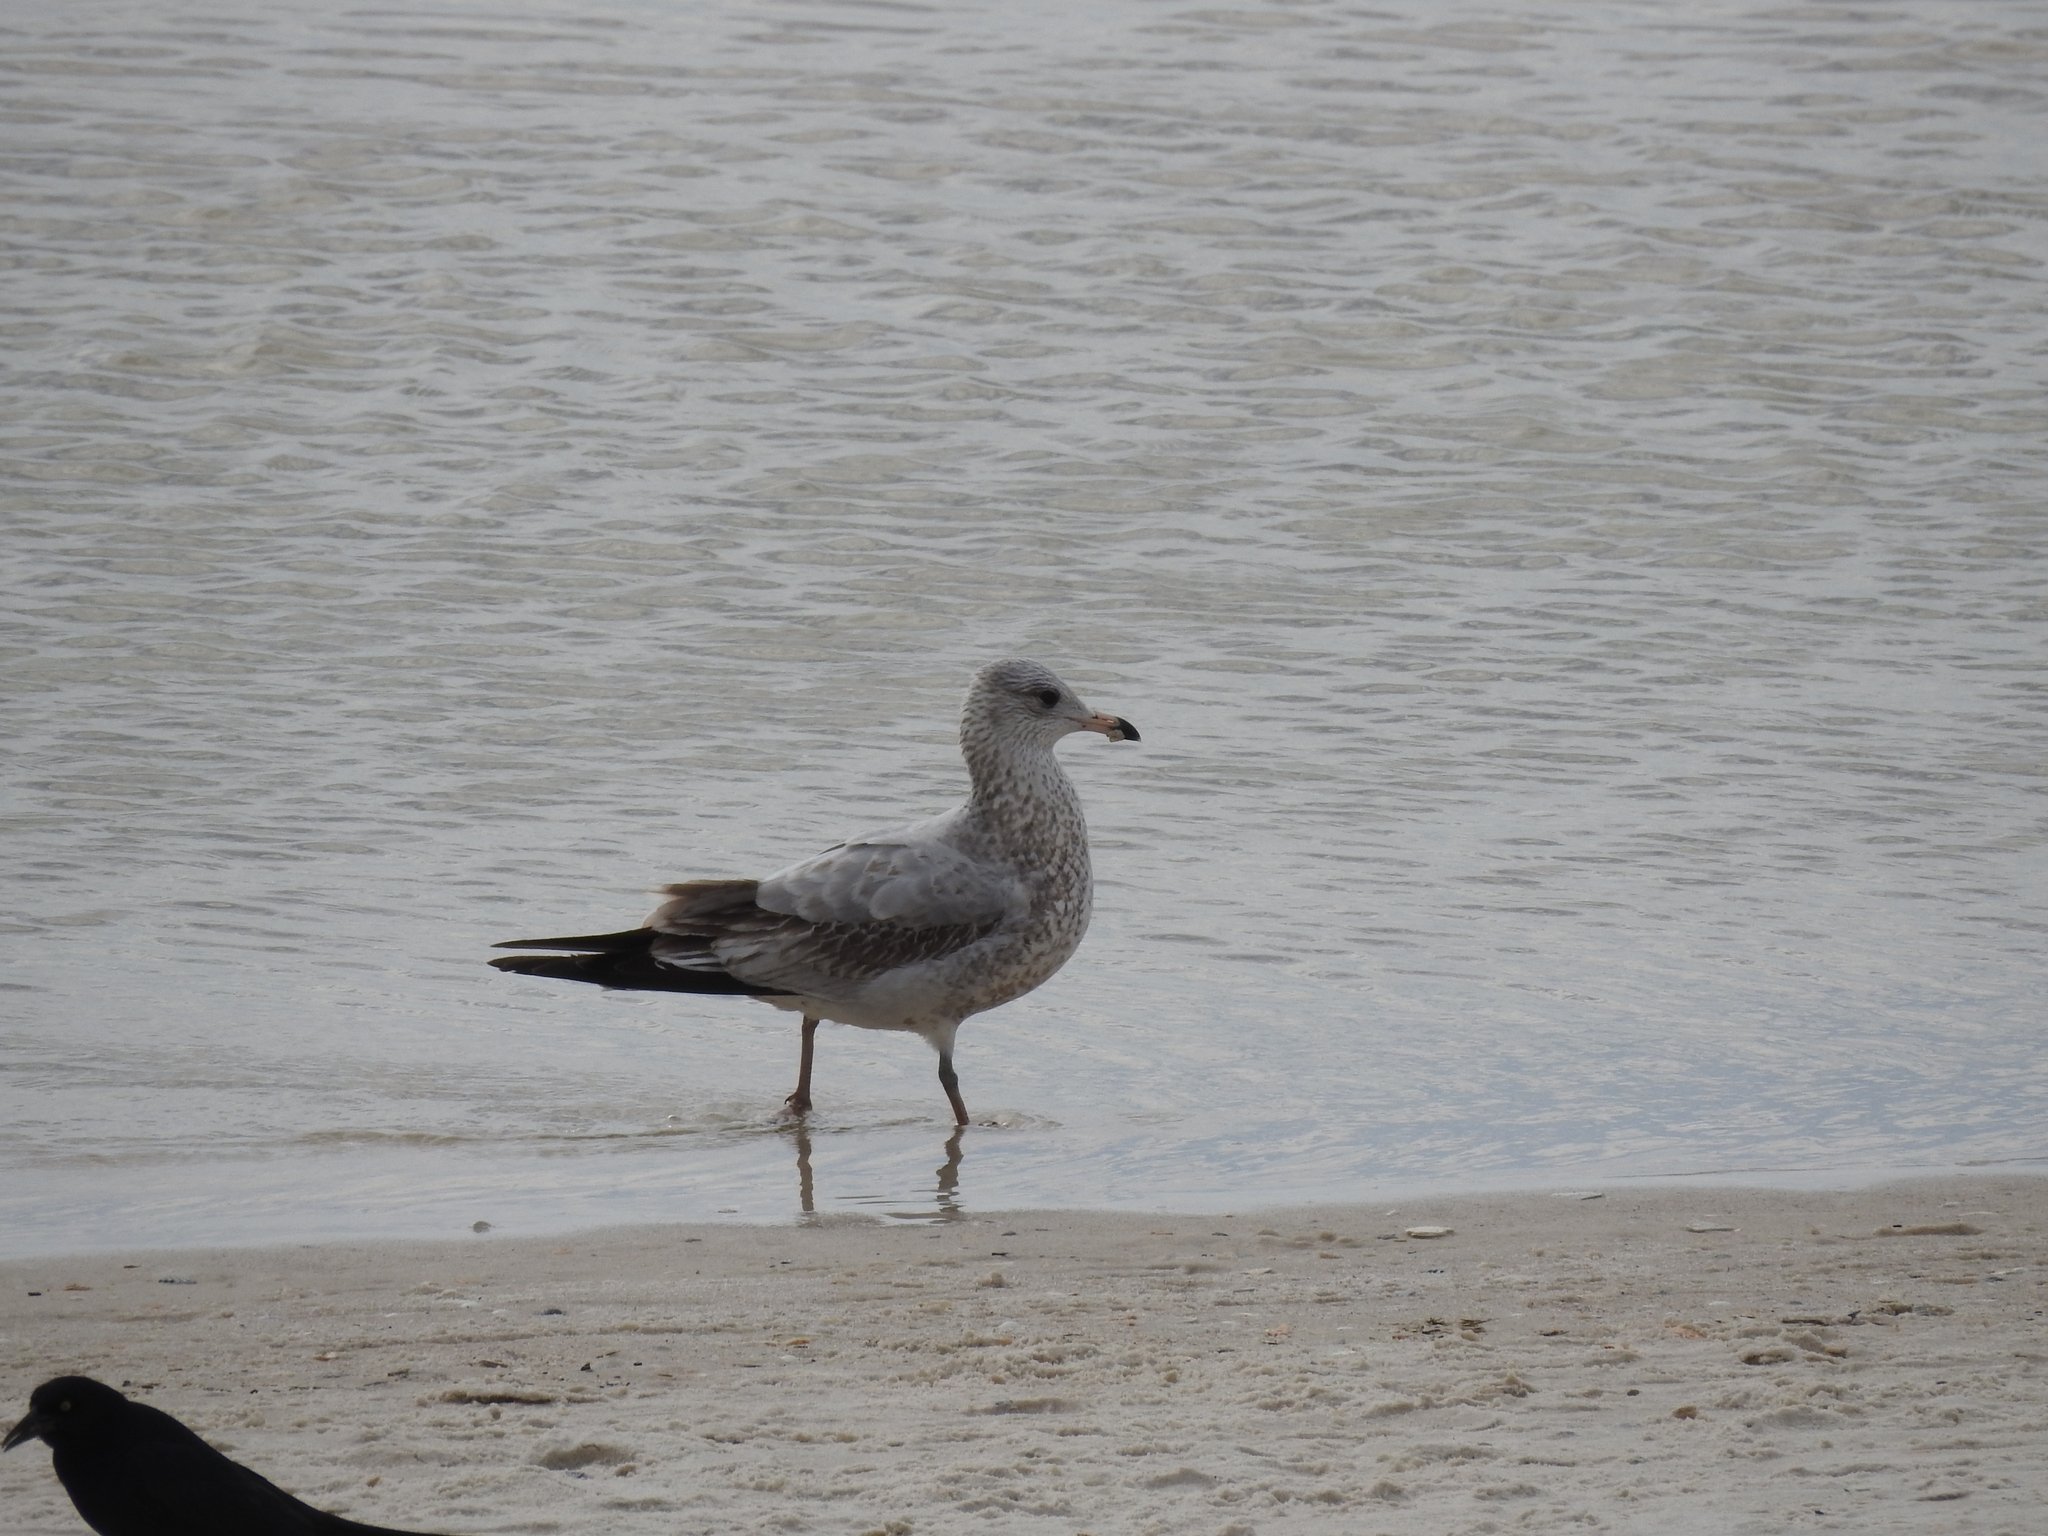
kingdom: Animalia
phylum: Chordata
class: Aves
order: Charadriiformes
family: Laridae
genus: Larus
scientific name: Larus delawarensis
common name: Ring-billed gull
